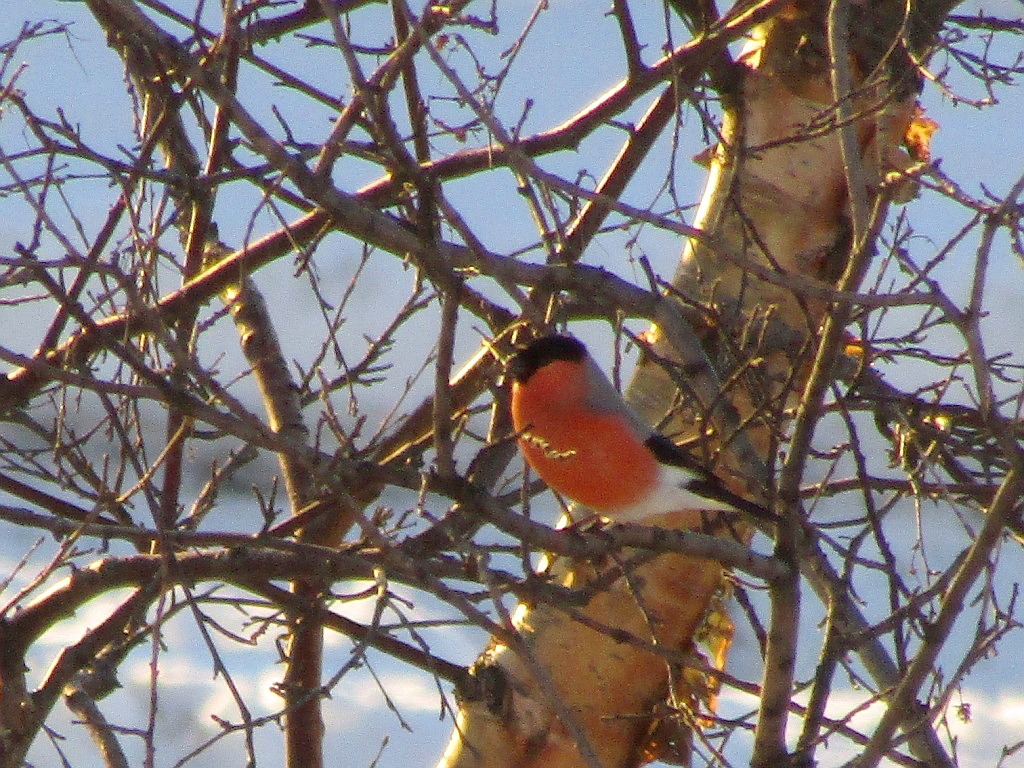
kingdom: Animalia
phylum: Chordata
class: Aves
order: Passeriformes
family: Fringillidae
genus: Pyrrhula
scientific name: Pyrrhula pyrrhula
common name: Eurasian bullfinch
